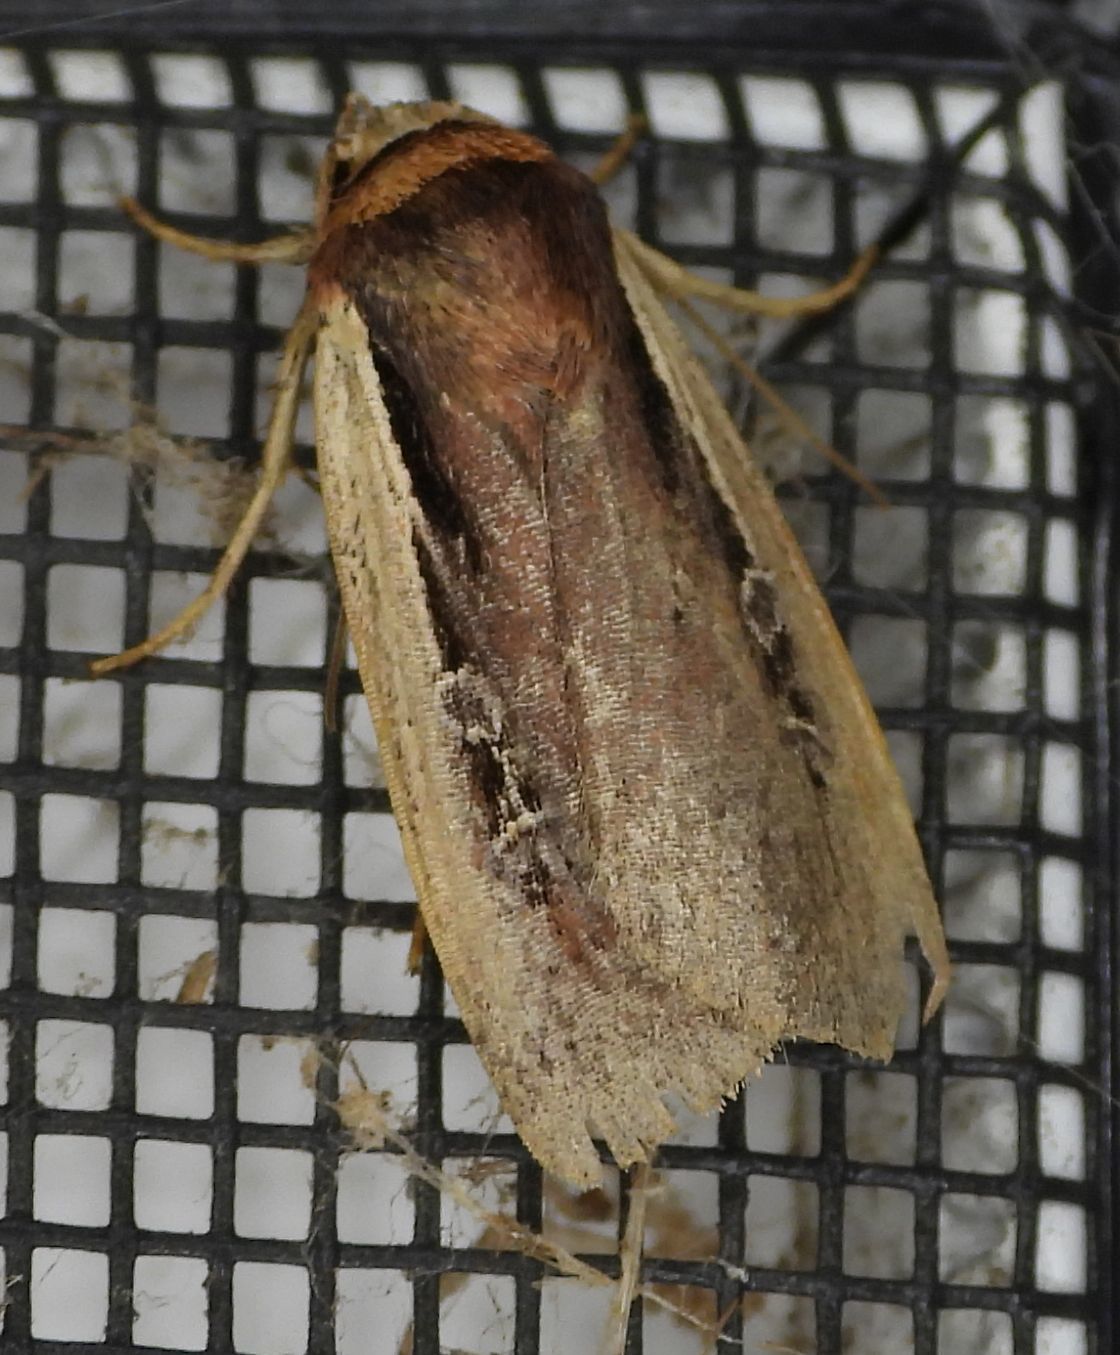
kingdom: Animalia
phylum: Arthropoda
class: Insecta
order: Lepidoptera
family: Noctuidae
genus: Ochropleura
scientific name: Ochropleura implecta
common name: Flame-shouldered dart
